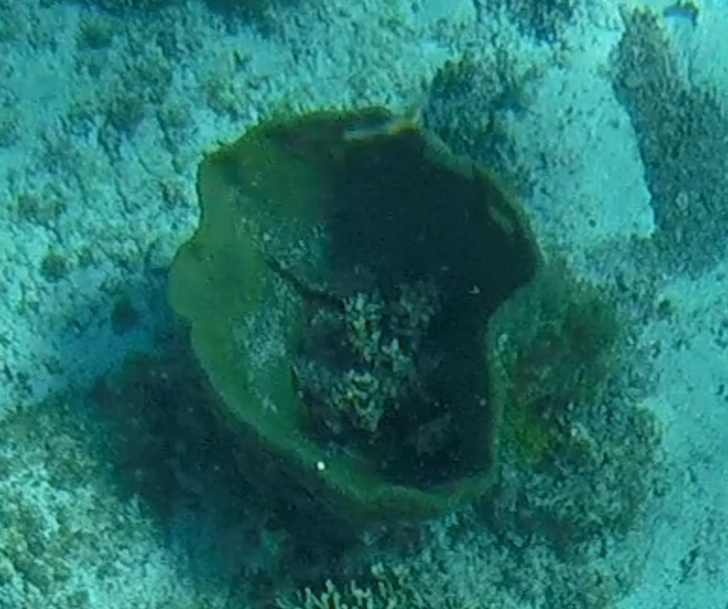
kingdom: Animalia
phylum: Porifera
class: Demospongiae
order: Verongiida
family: Aplysinidae
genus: Verongula
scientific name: Verongula gigantea
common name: Netted barrel sponge
